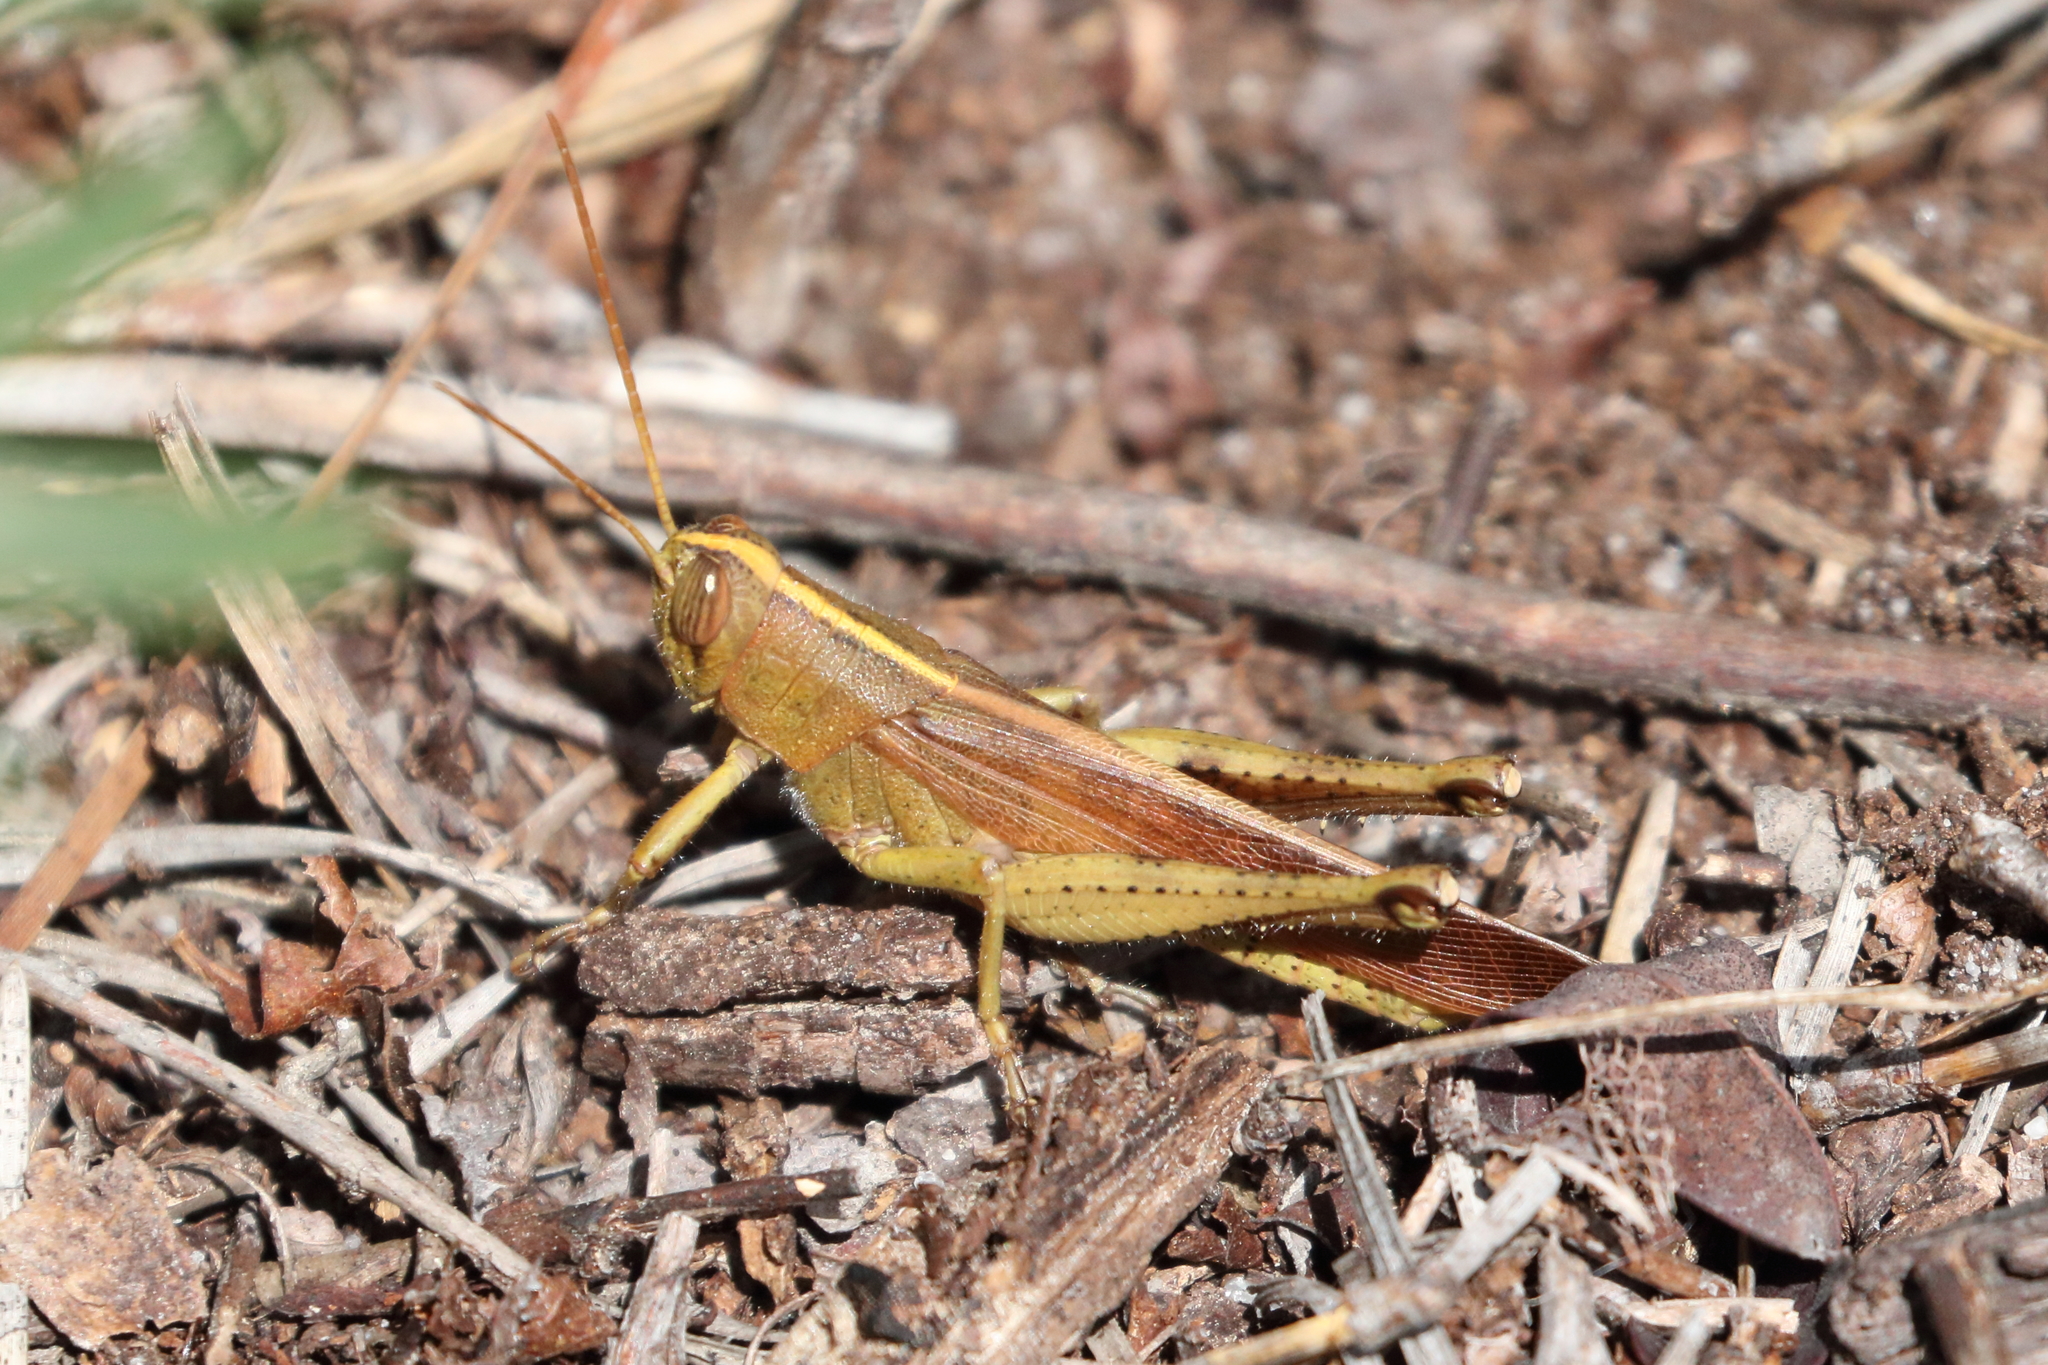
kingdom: Animalia
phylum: Arthropoda
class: Insecta
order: Orthoptera
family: Acrididae
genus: Schistocerca
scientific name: Schistocerca lineata
